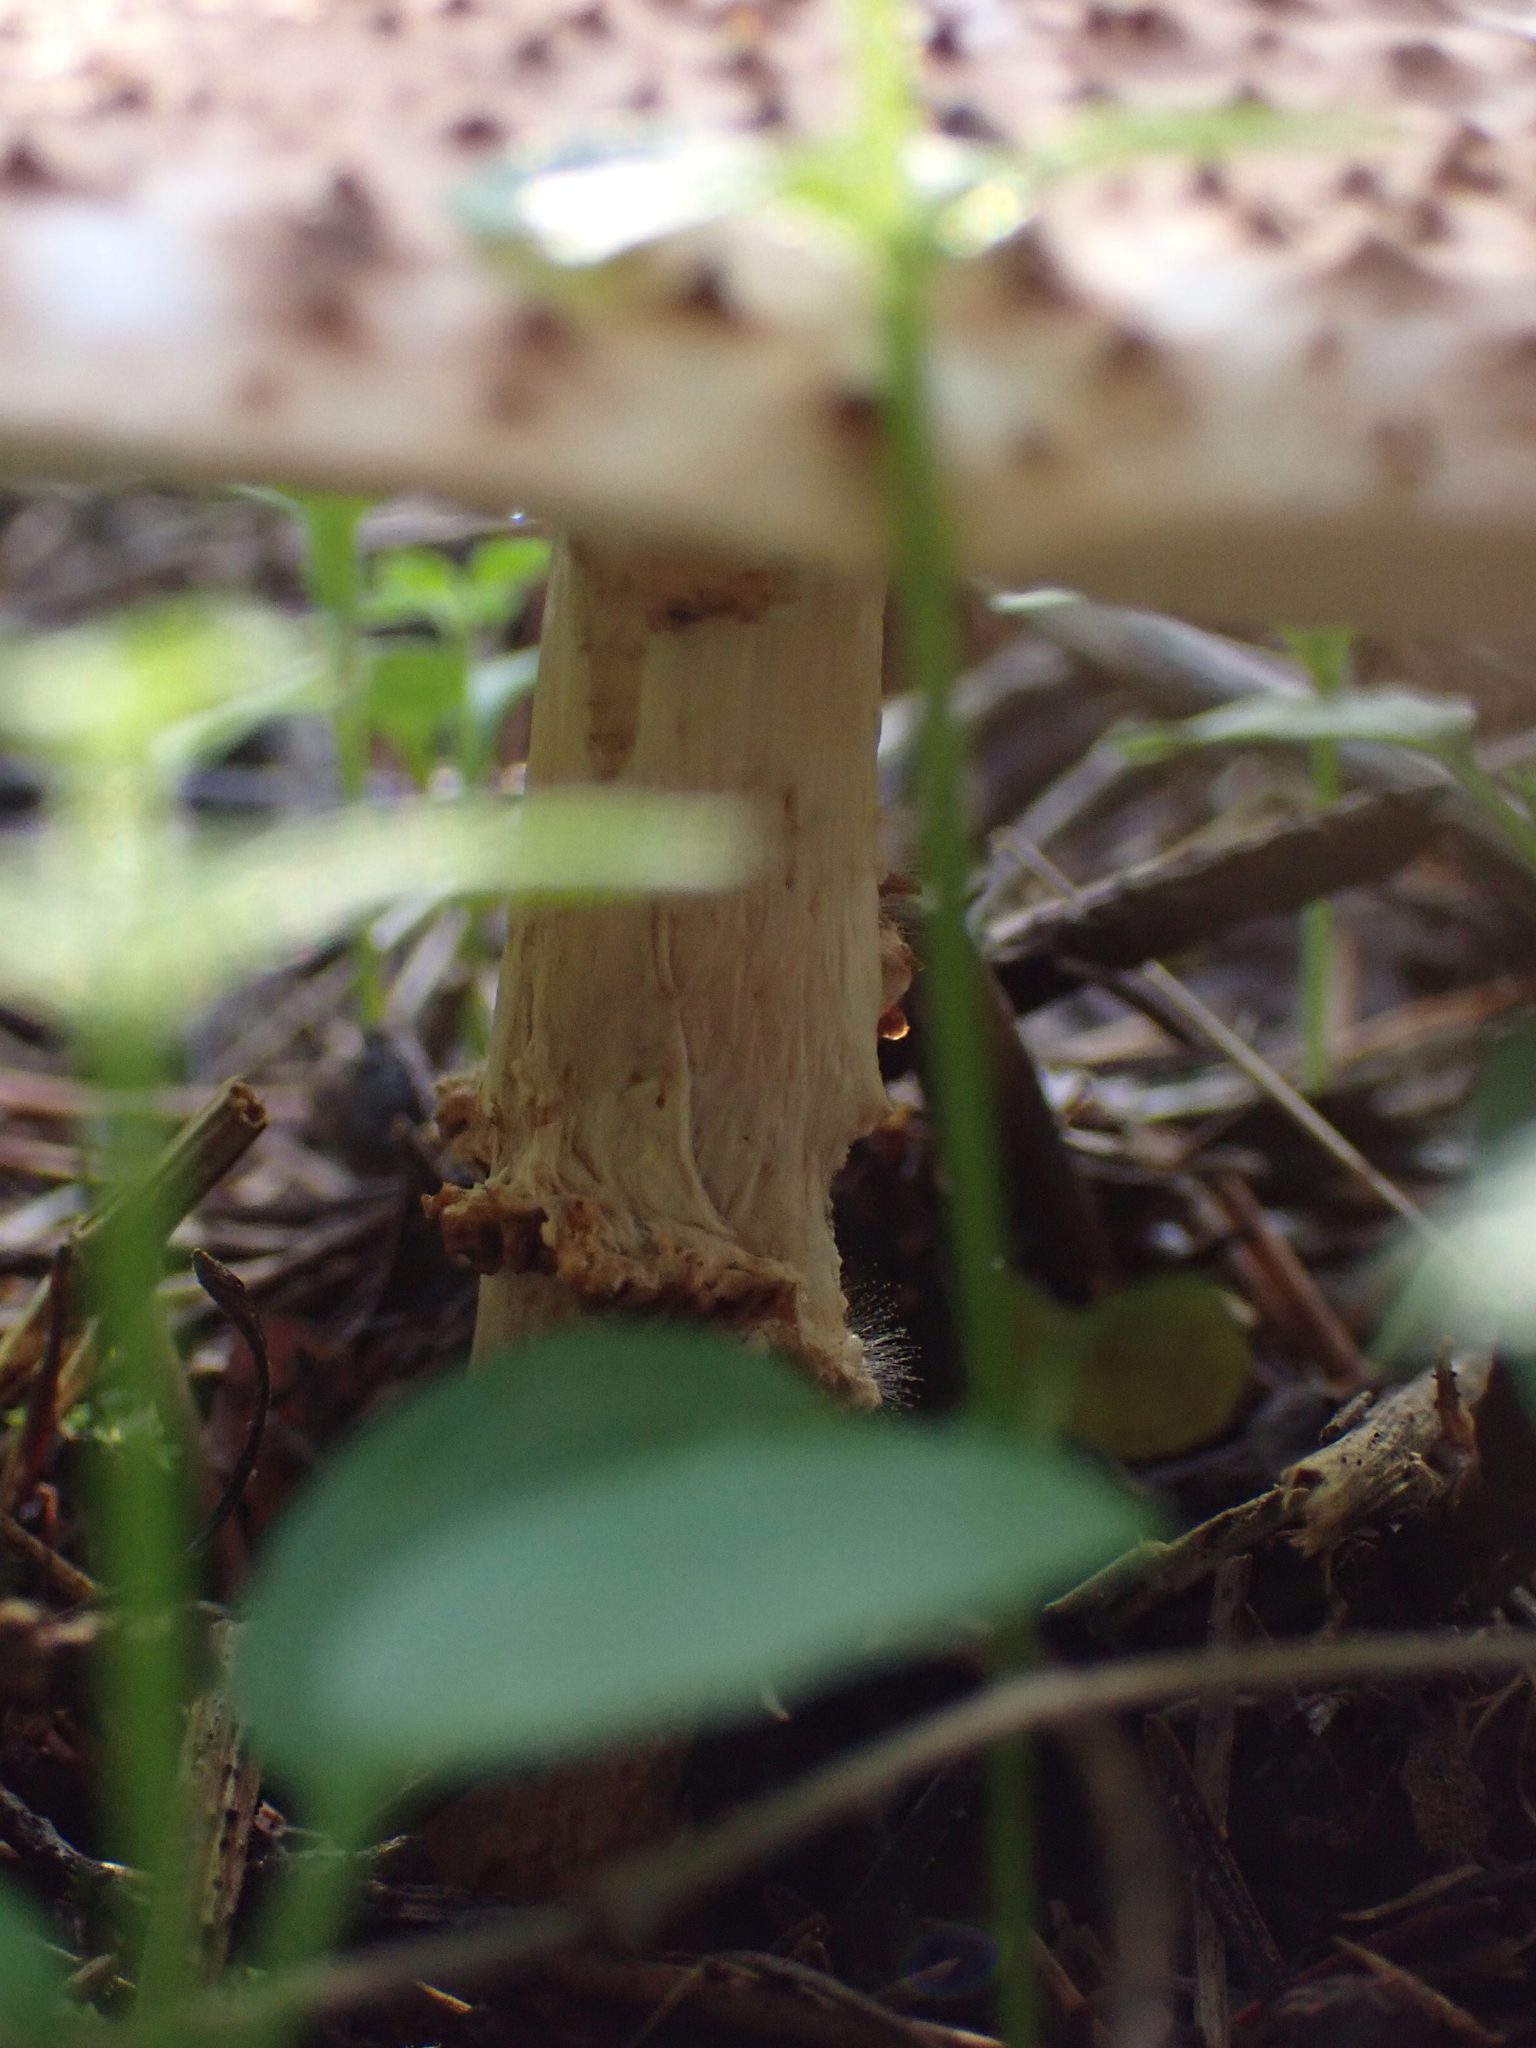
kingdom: Fungi
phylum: Basidiomycota
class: Agaricomycetes
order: Agaricales
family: Agaricaceae
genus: Echinoderma
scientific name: Echinoderma asperum
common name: Freckled dapperling
